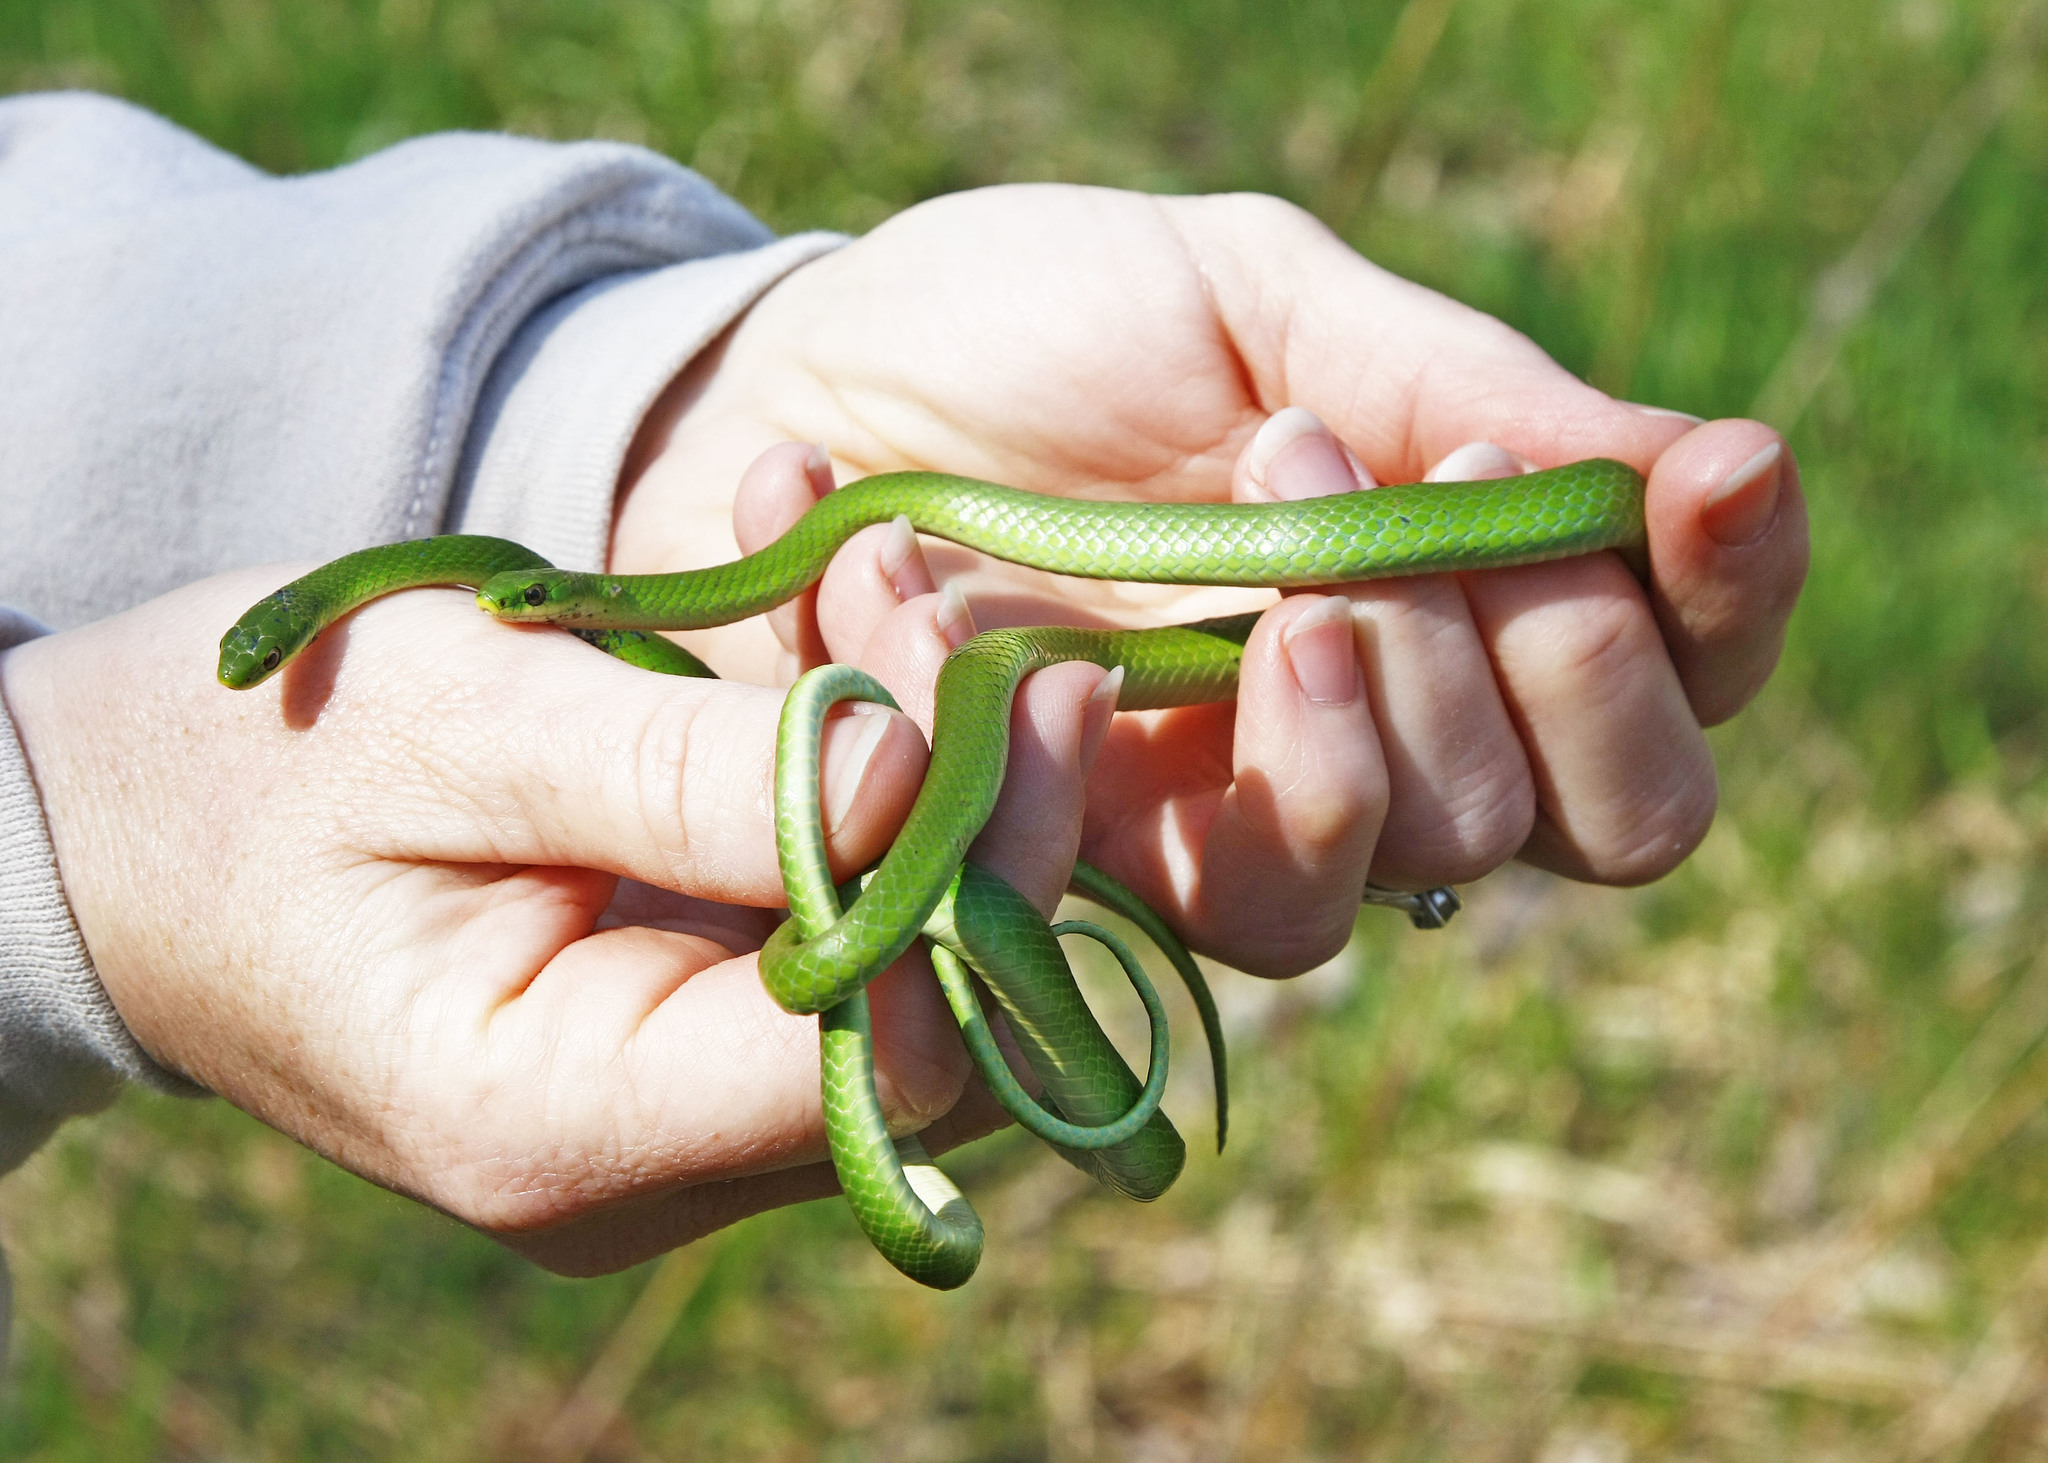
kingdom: Animalia
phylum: Chordata
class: Squamata
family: Colubridae
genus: Opheodrys
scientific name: Opheodrys vernalis
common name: Smooth green snake
